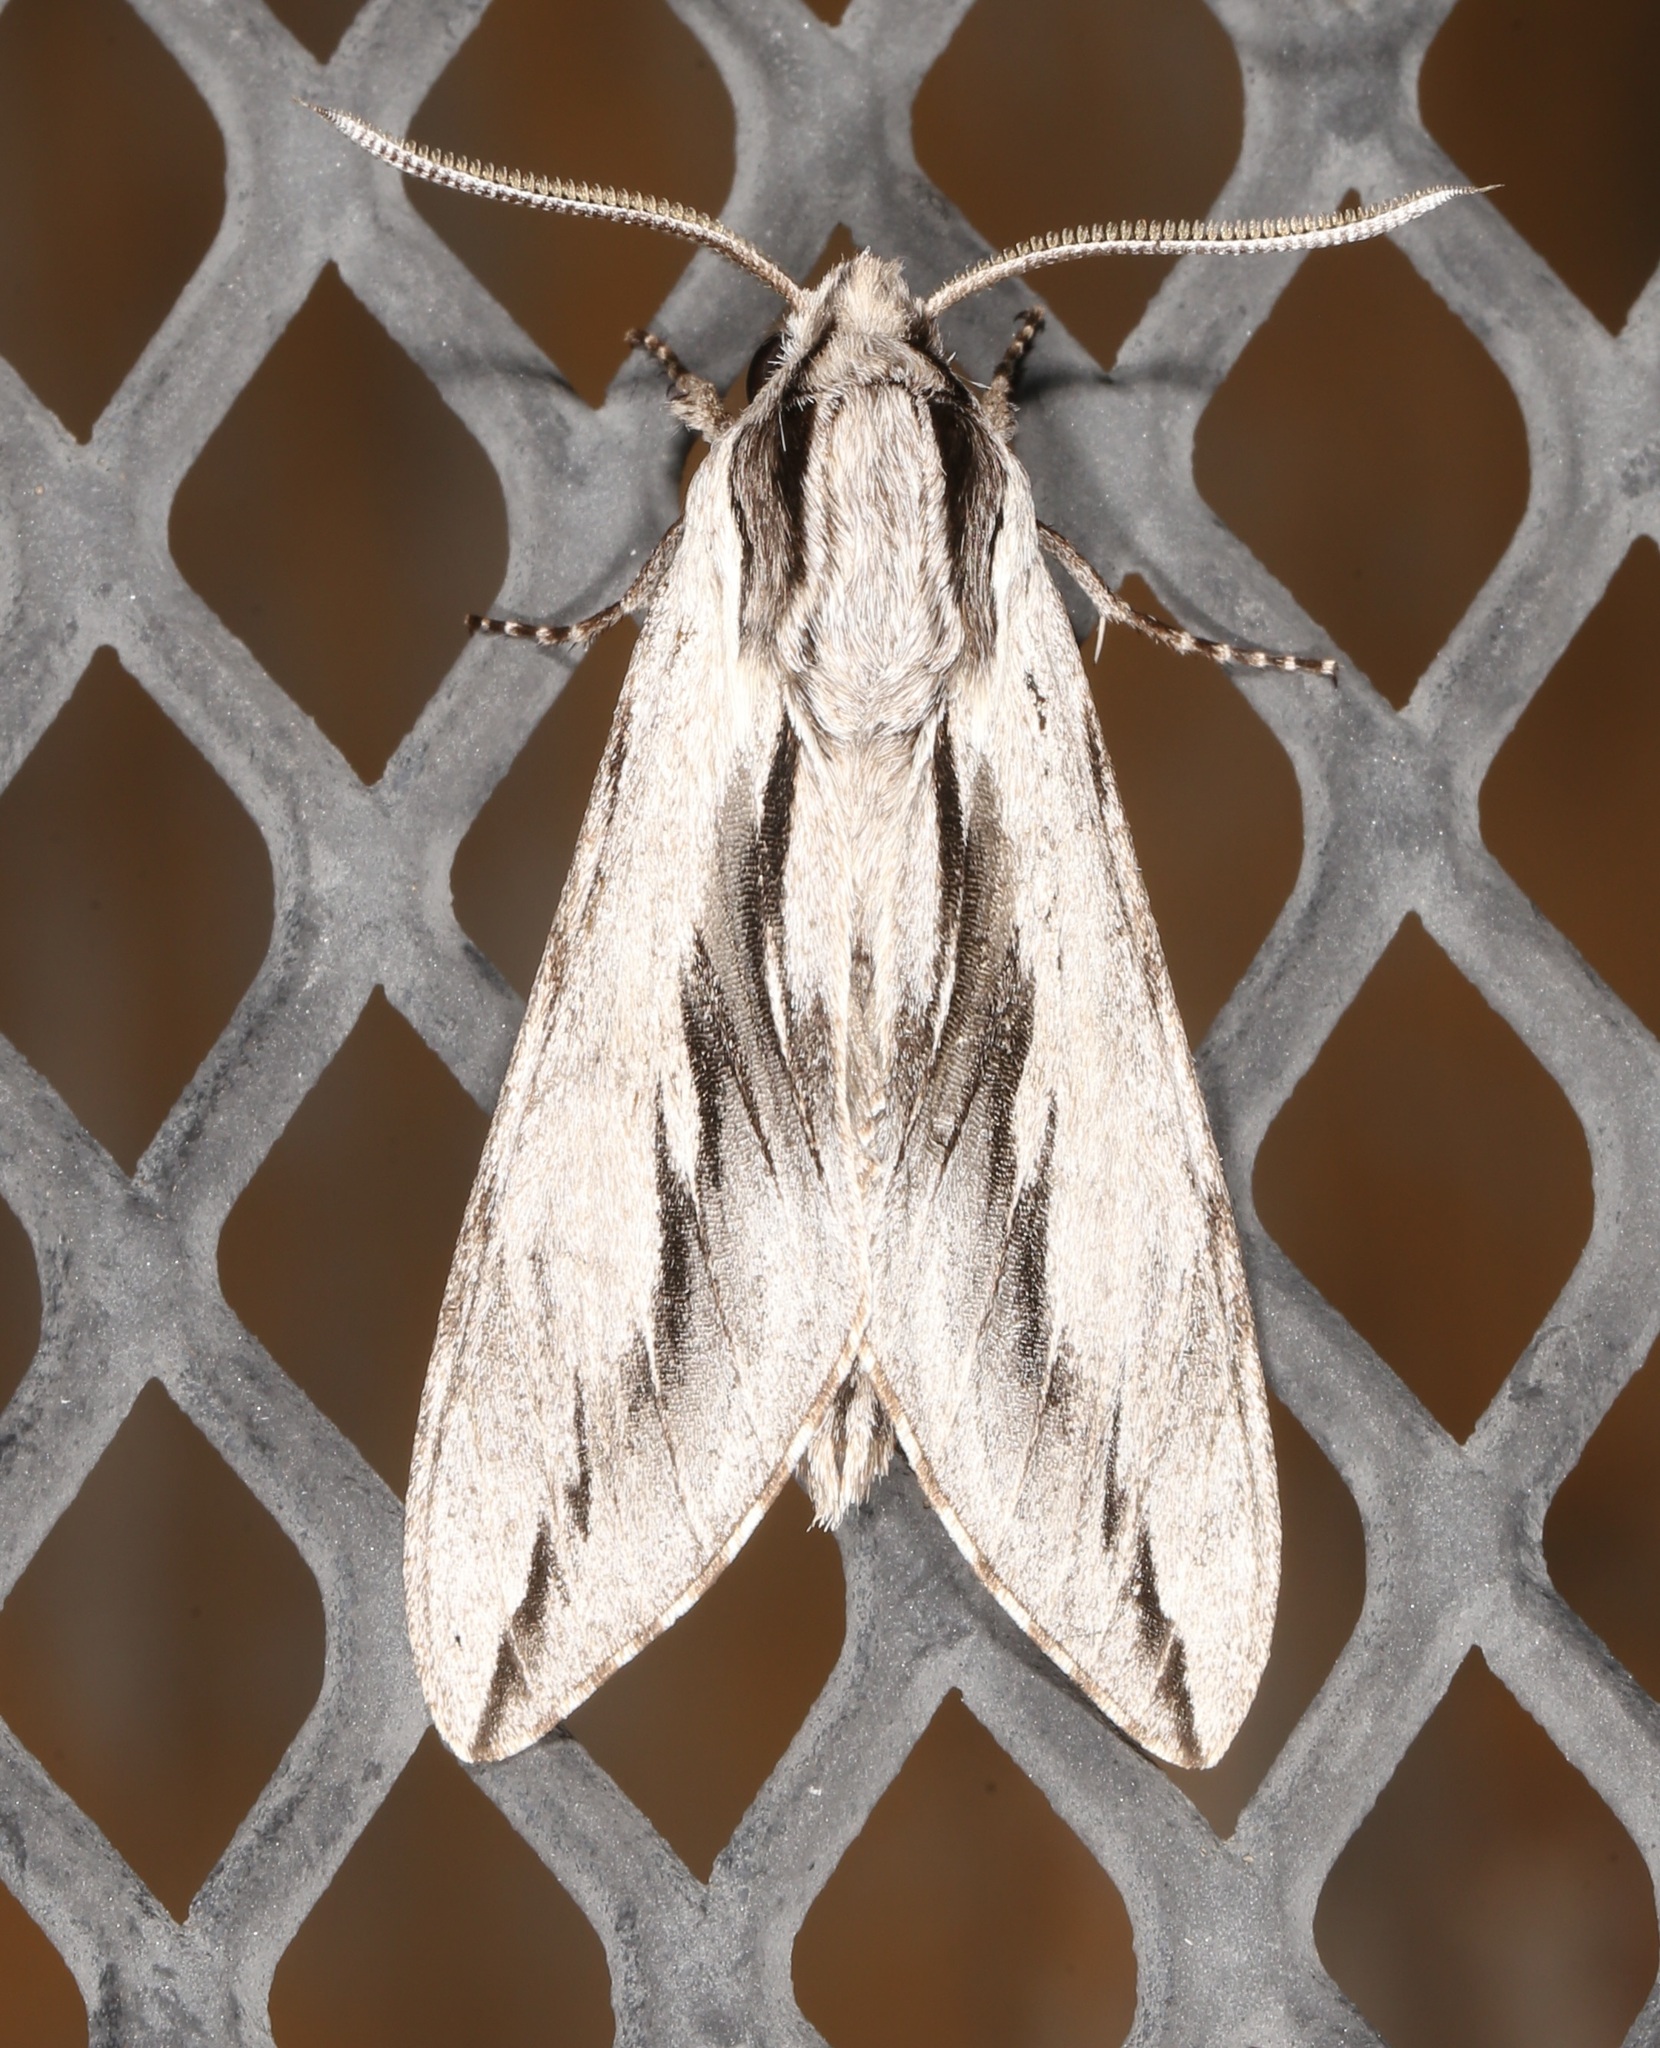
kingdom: Animalia
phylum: Arthropoda
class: Insecta
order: Lepidoptera
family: Sphingidae
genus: Sphinx
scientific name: Sphinx dollii
